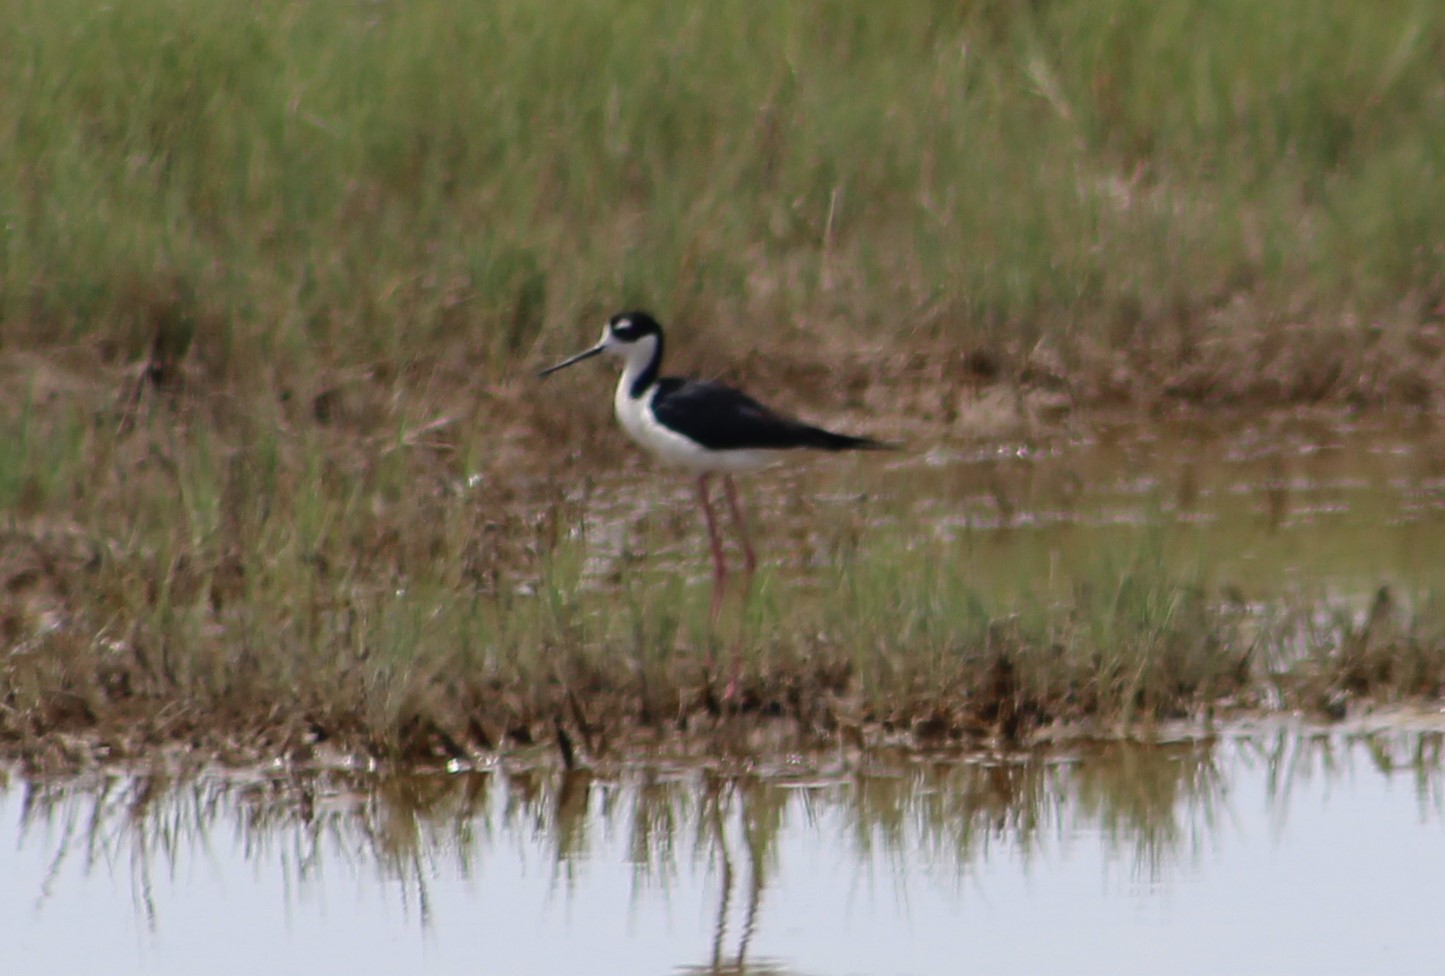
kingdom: Animalia
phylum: Chordata
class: Aves
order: Charadriiformes
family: Recurvirostridae
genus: Himantopus
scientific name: Himantopus mexicanus
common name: Black-necked stilt
